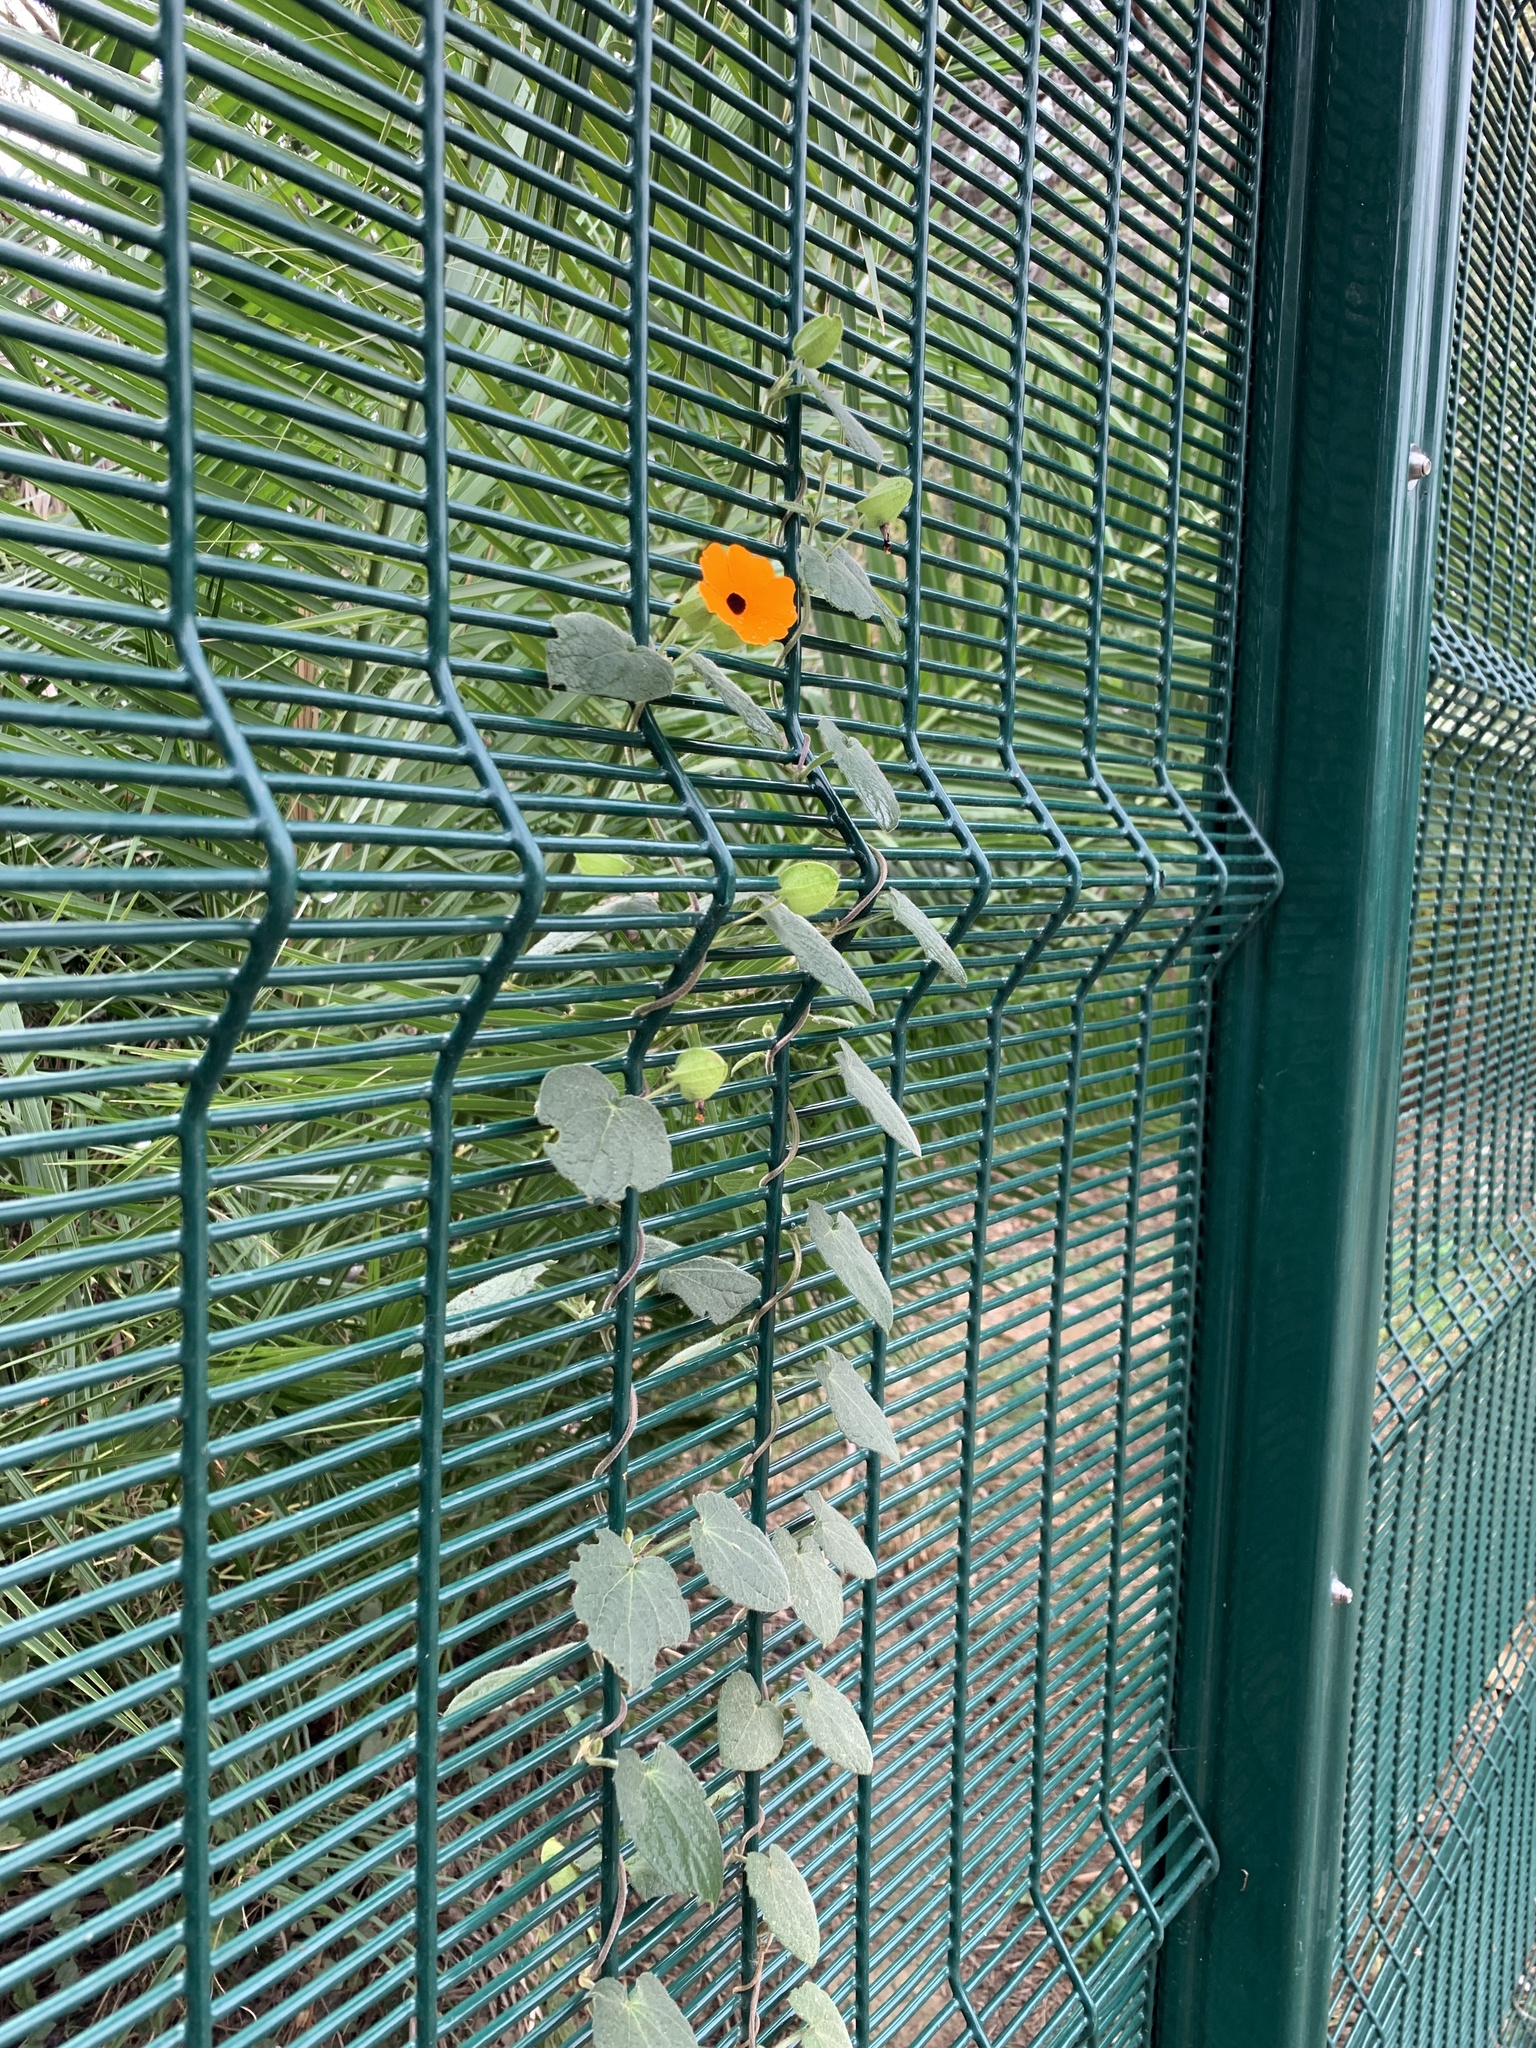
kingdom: Plantae
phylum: Tracheophyta
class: Magnoliopsida
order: Lamiales
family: Acanthaceae
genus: Thunbergia
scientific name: Thunbergia alata
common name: Blackeyed susan vine
